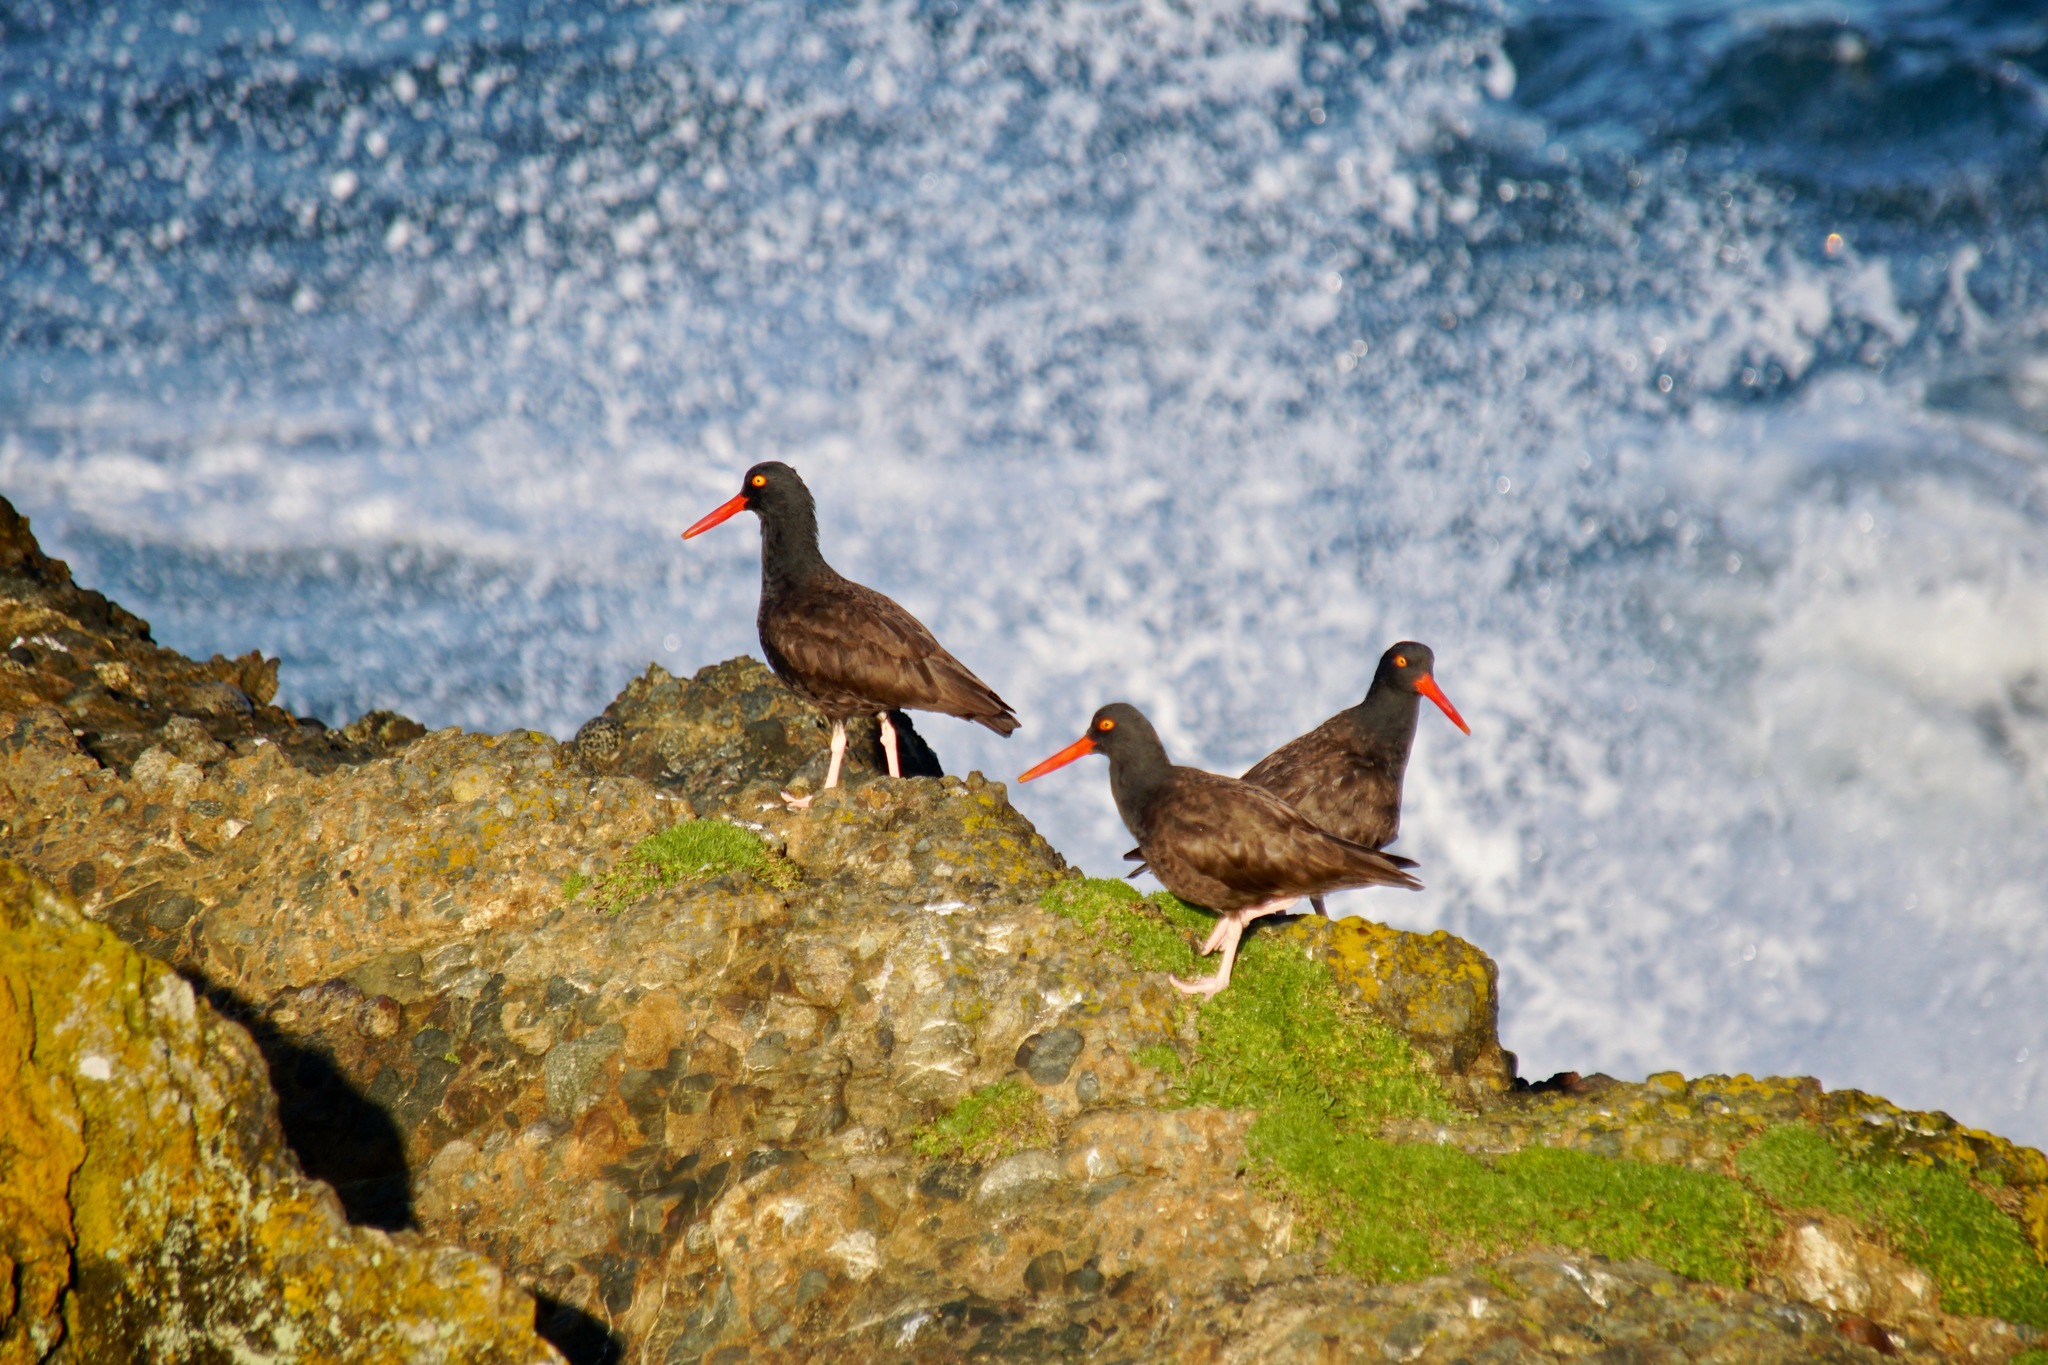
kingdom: Animalia
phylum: Chordata
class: Aves
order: Charadriiformes
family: Haematopodidae
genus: Haematopus
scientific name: Haematopus bachmani
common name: Black oystercatcher
